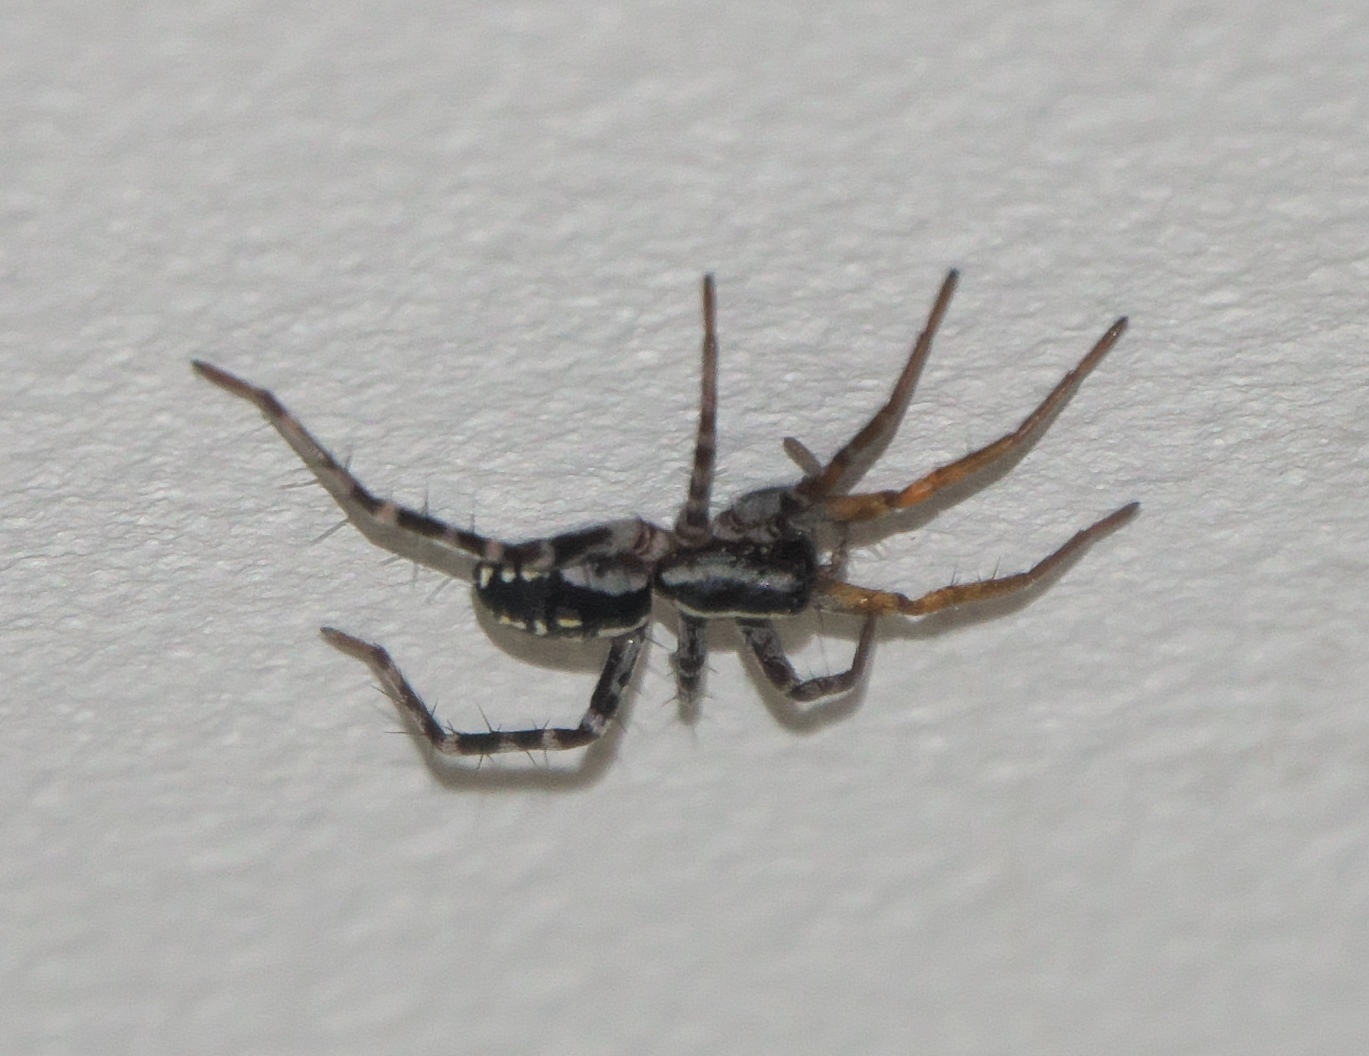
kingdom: Animalia
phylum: Arthropoda
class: Arachnida
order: Araneae
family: Corinnidae
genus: Nyssus
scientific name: Nyssus coloripes
